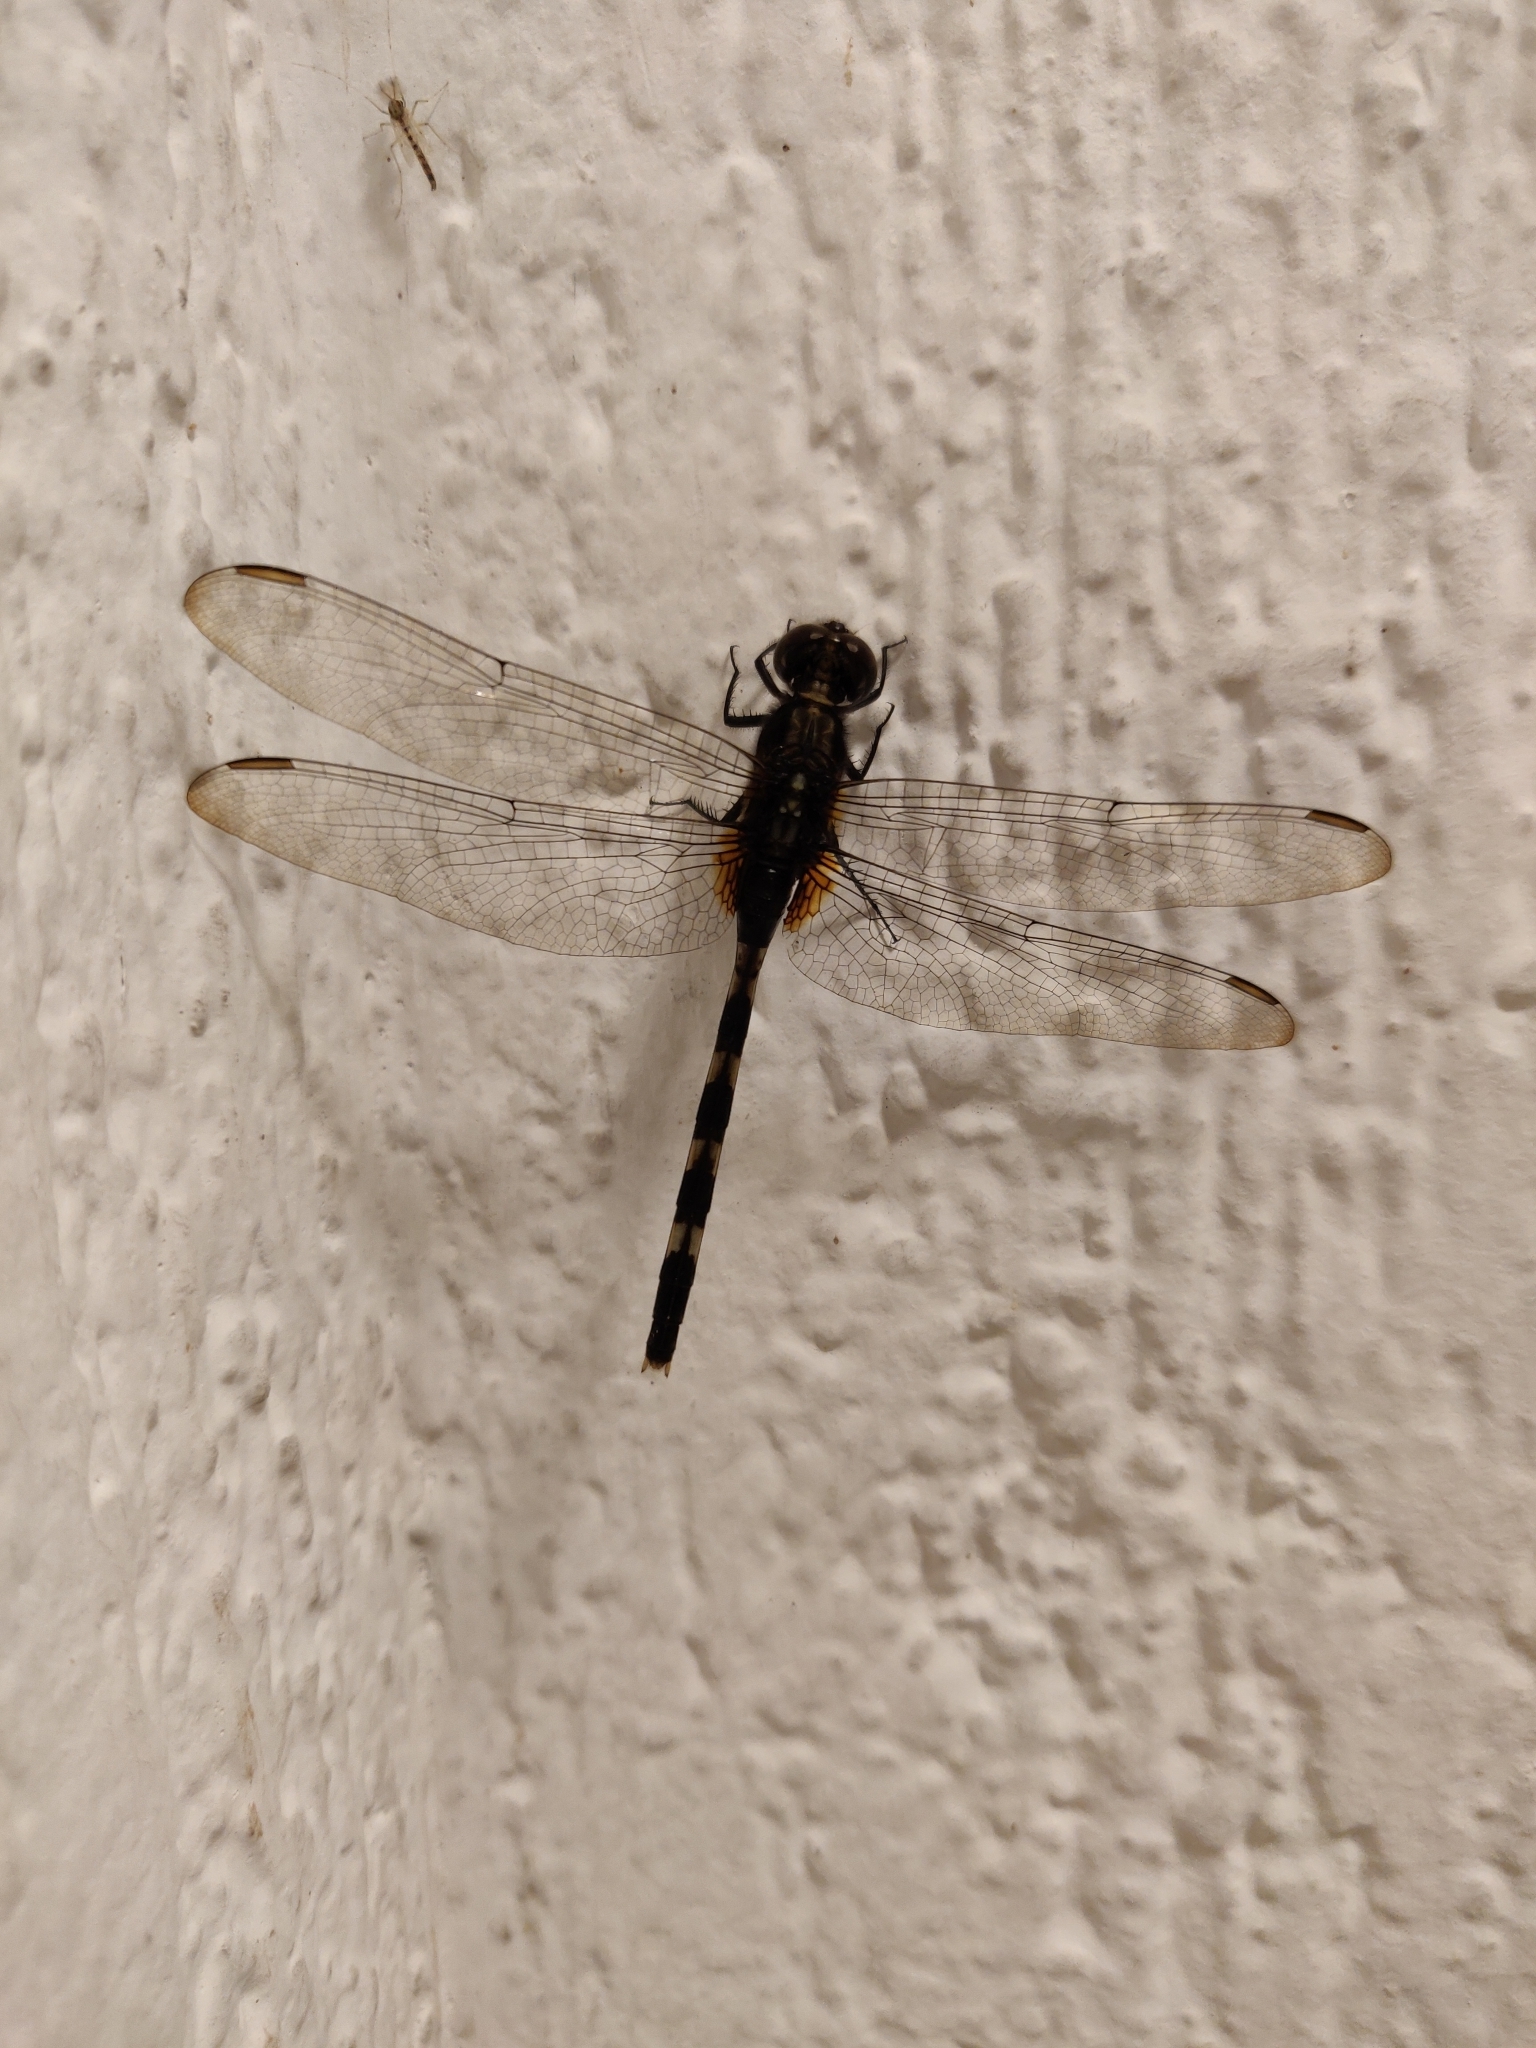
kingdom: Animalia
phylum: Arthropoda
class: Insecta
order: Odonata
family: Libellulidae
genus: Erythemis
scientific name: Erythemis plebeja
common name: Pin-tailed pondhawk
